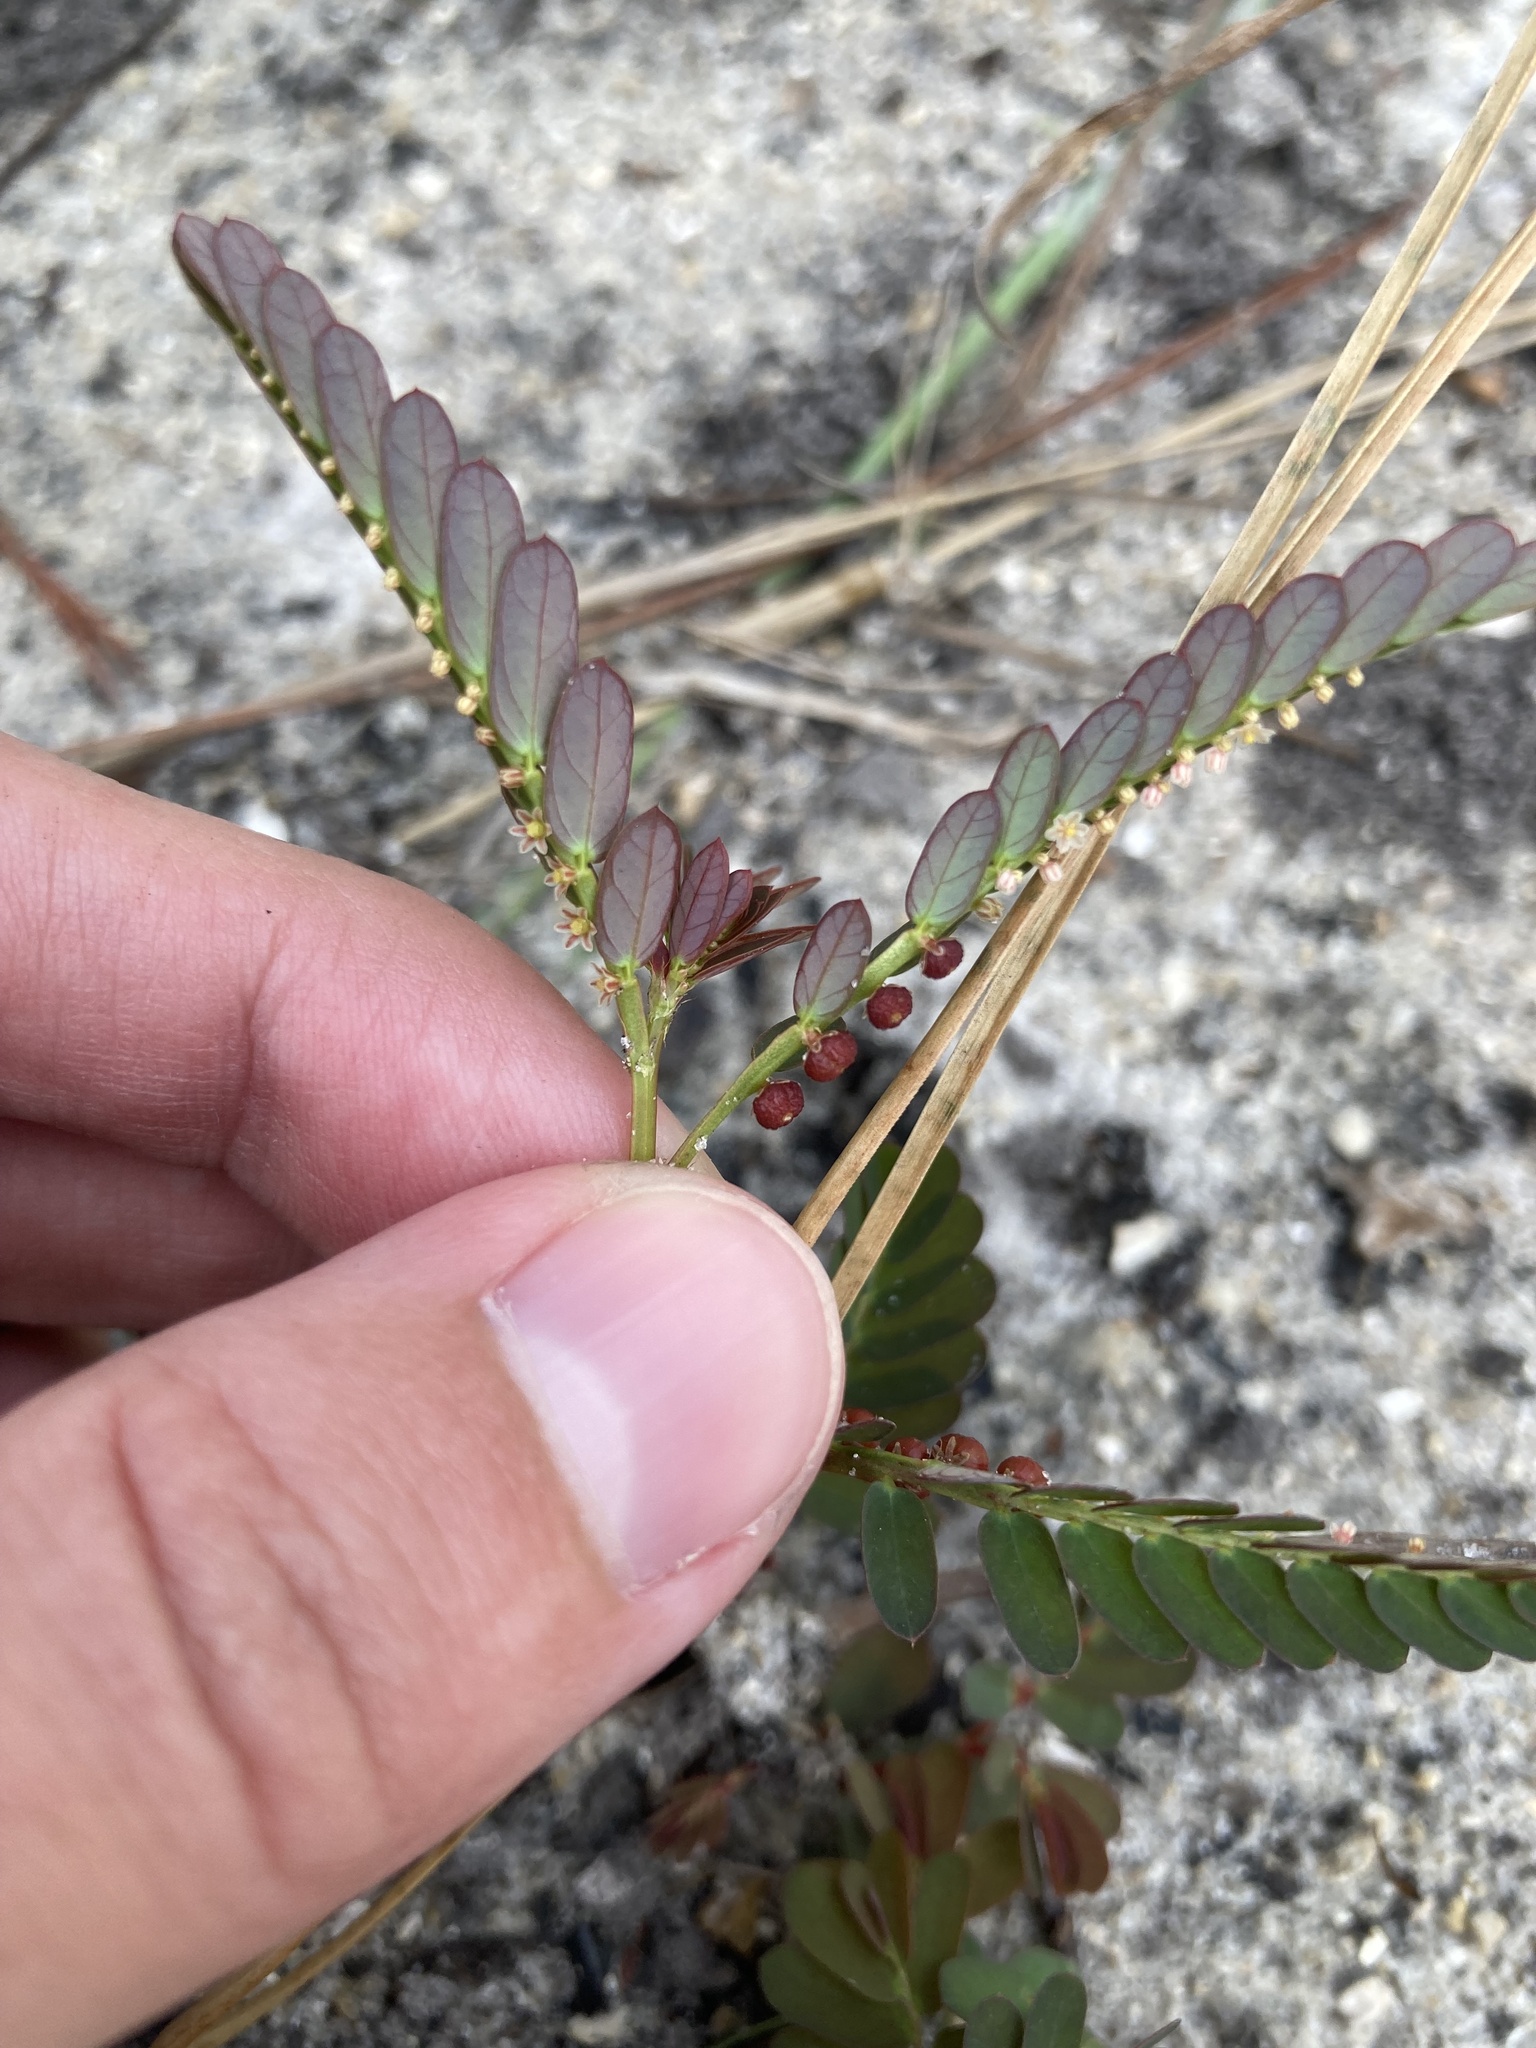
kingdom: Plantae
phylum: Tracheophyta
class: Magnoliopsida
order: Malpighiales
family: Phyllanthaceae
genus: Phyllanthus
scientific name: Phyllanthus urinaria
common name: Chamber bitter
